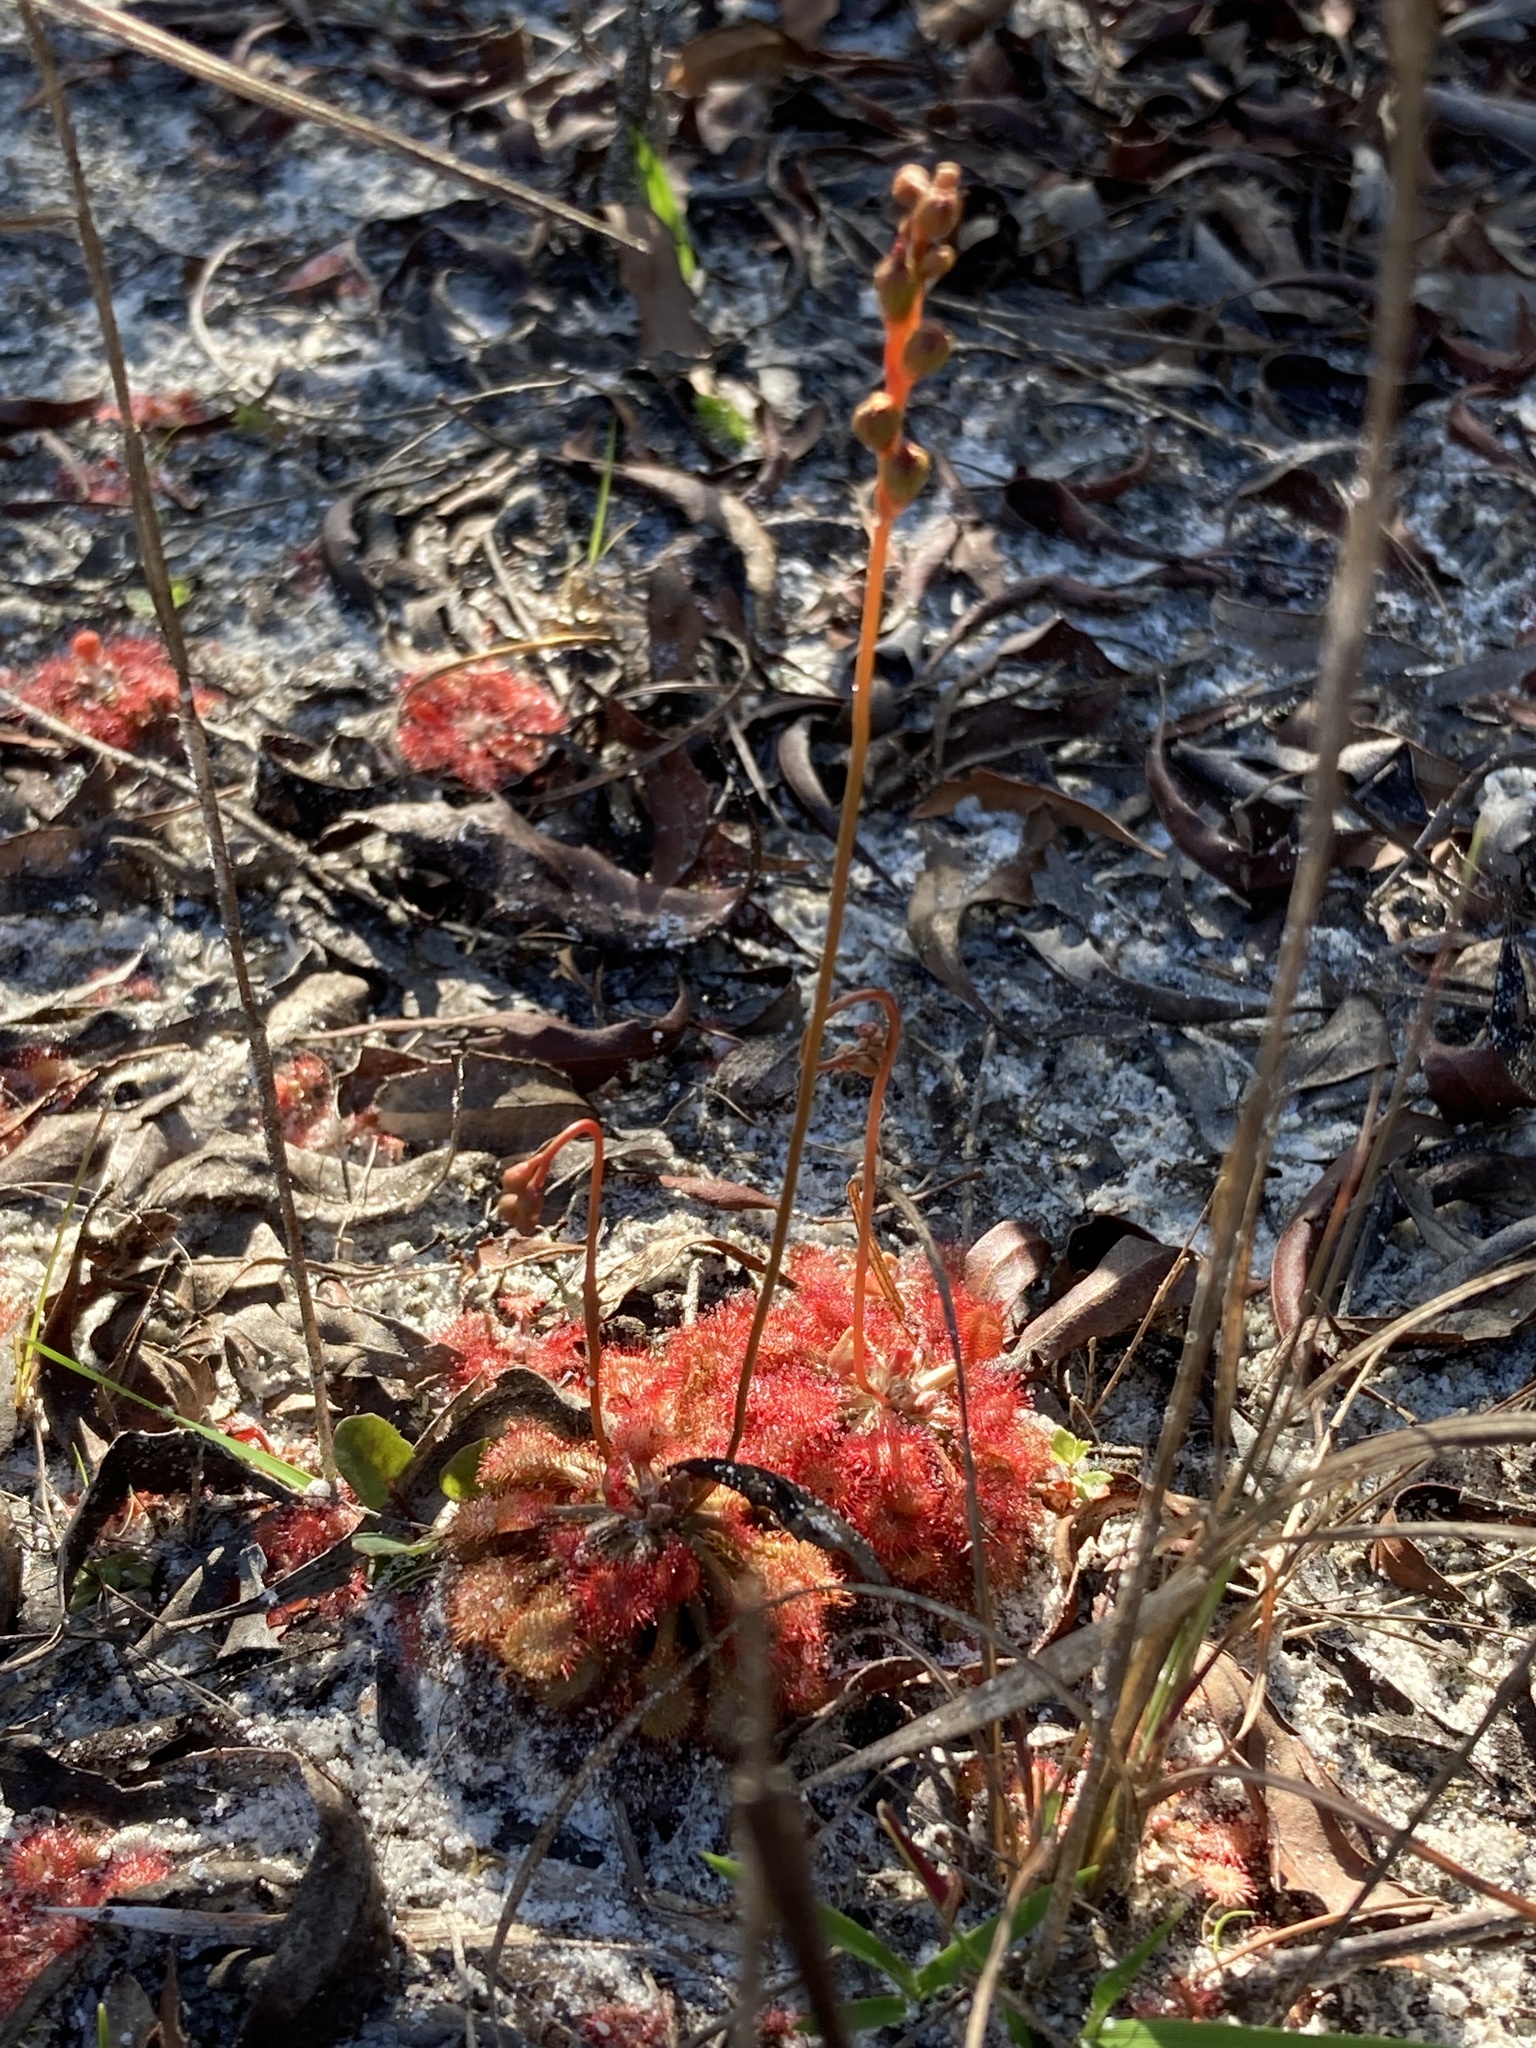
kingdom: Plantae
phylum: Tracheophyta
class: Magnoliopsida
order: Caryophyllales
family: Droseraceae
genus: Drosera
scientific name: Drosera capillaris
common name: Pink sundew
